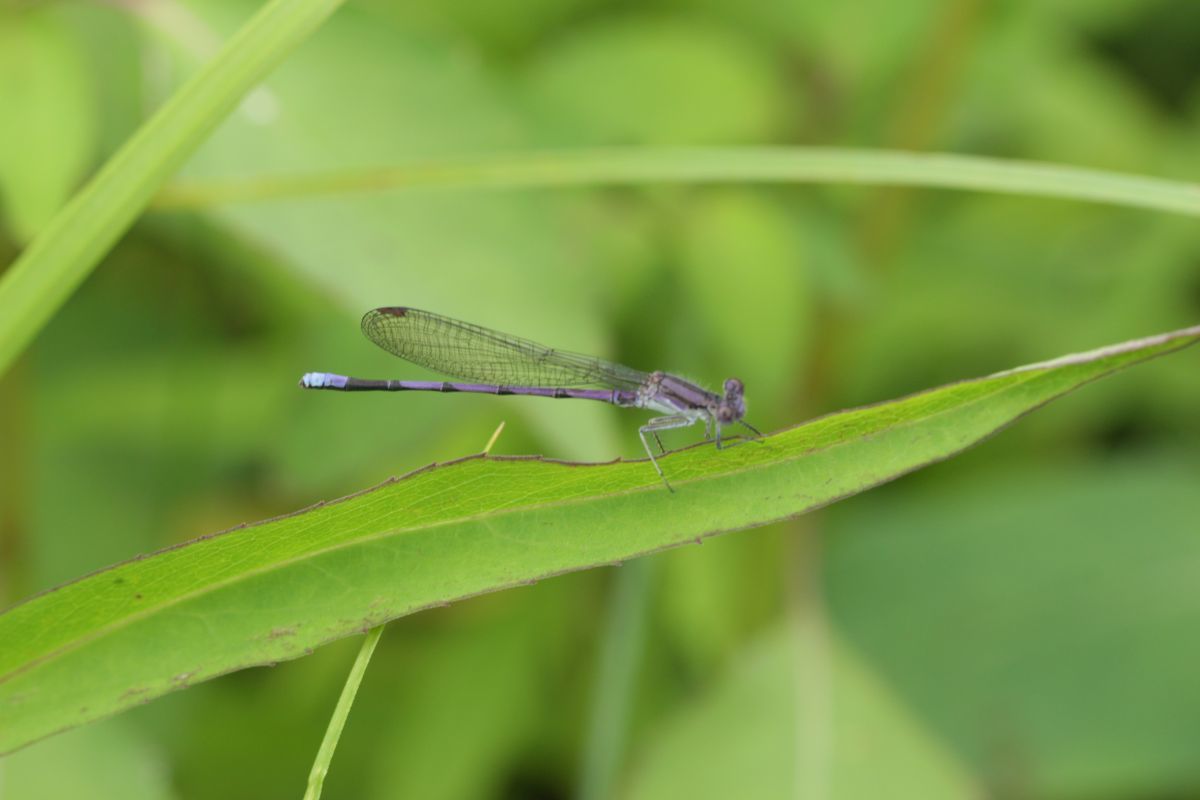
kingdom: Animalia
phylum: Arthropoda
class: Insecta
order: Odonata
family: Coenagrionidae
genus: Argia
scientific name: Argia fumipennis
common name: Variable dancer
